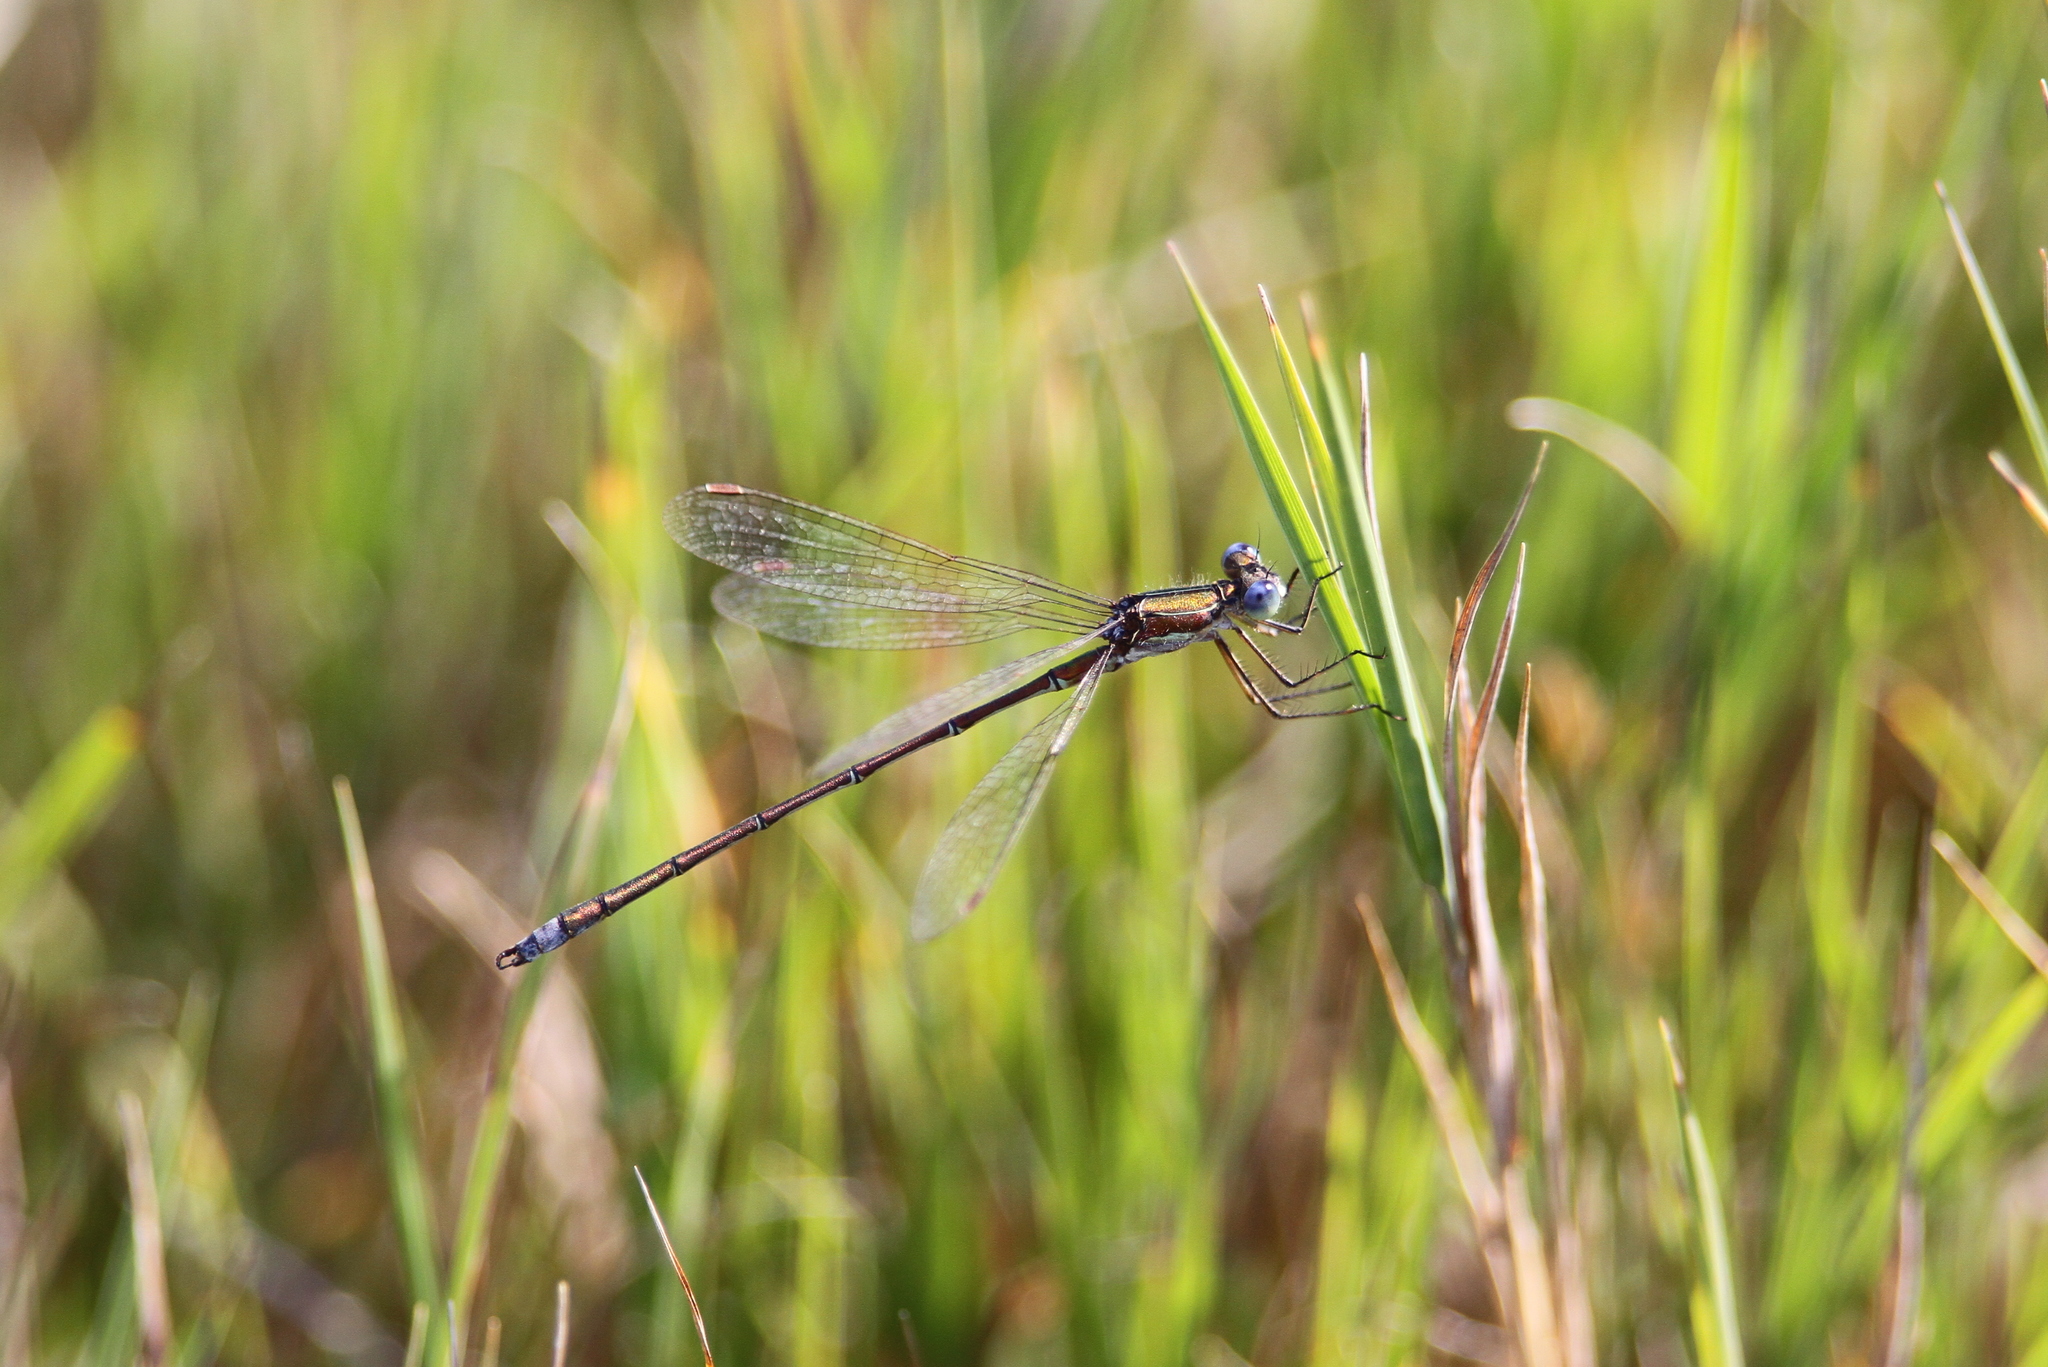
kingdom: Animalia
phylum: Arthropoda
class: Insecta
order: Odonata
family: Lestidae
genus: Lestes
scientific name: Lestes virens
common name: Small emerald spreadwing
